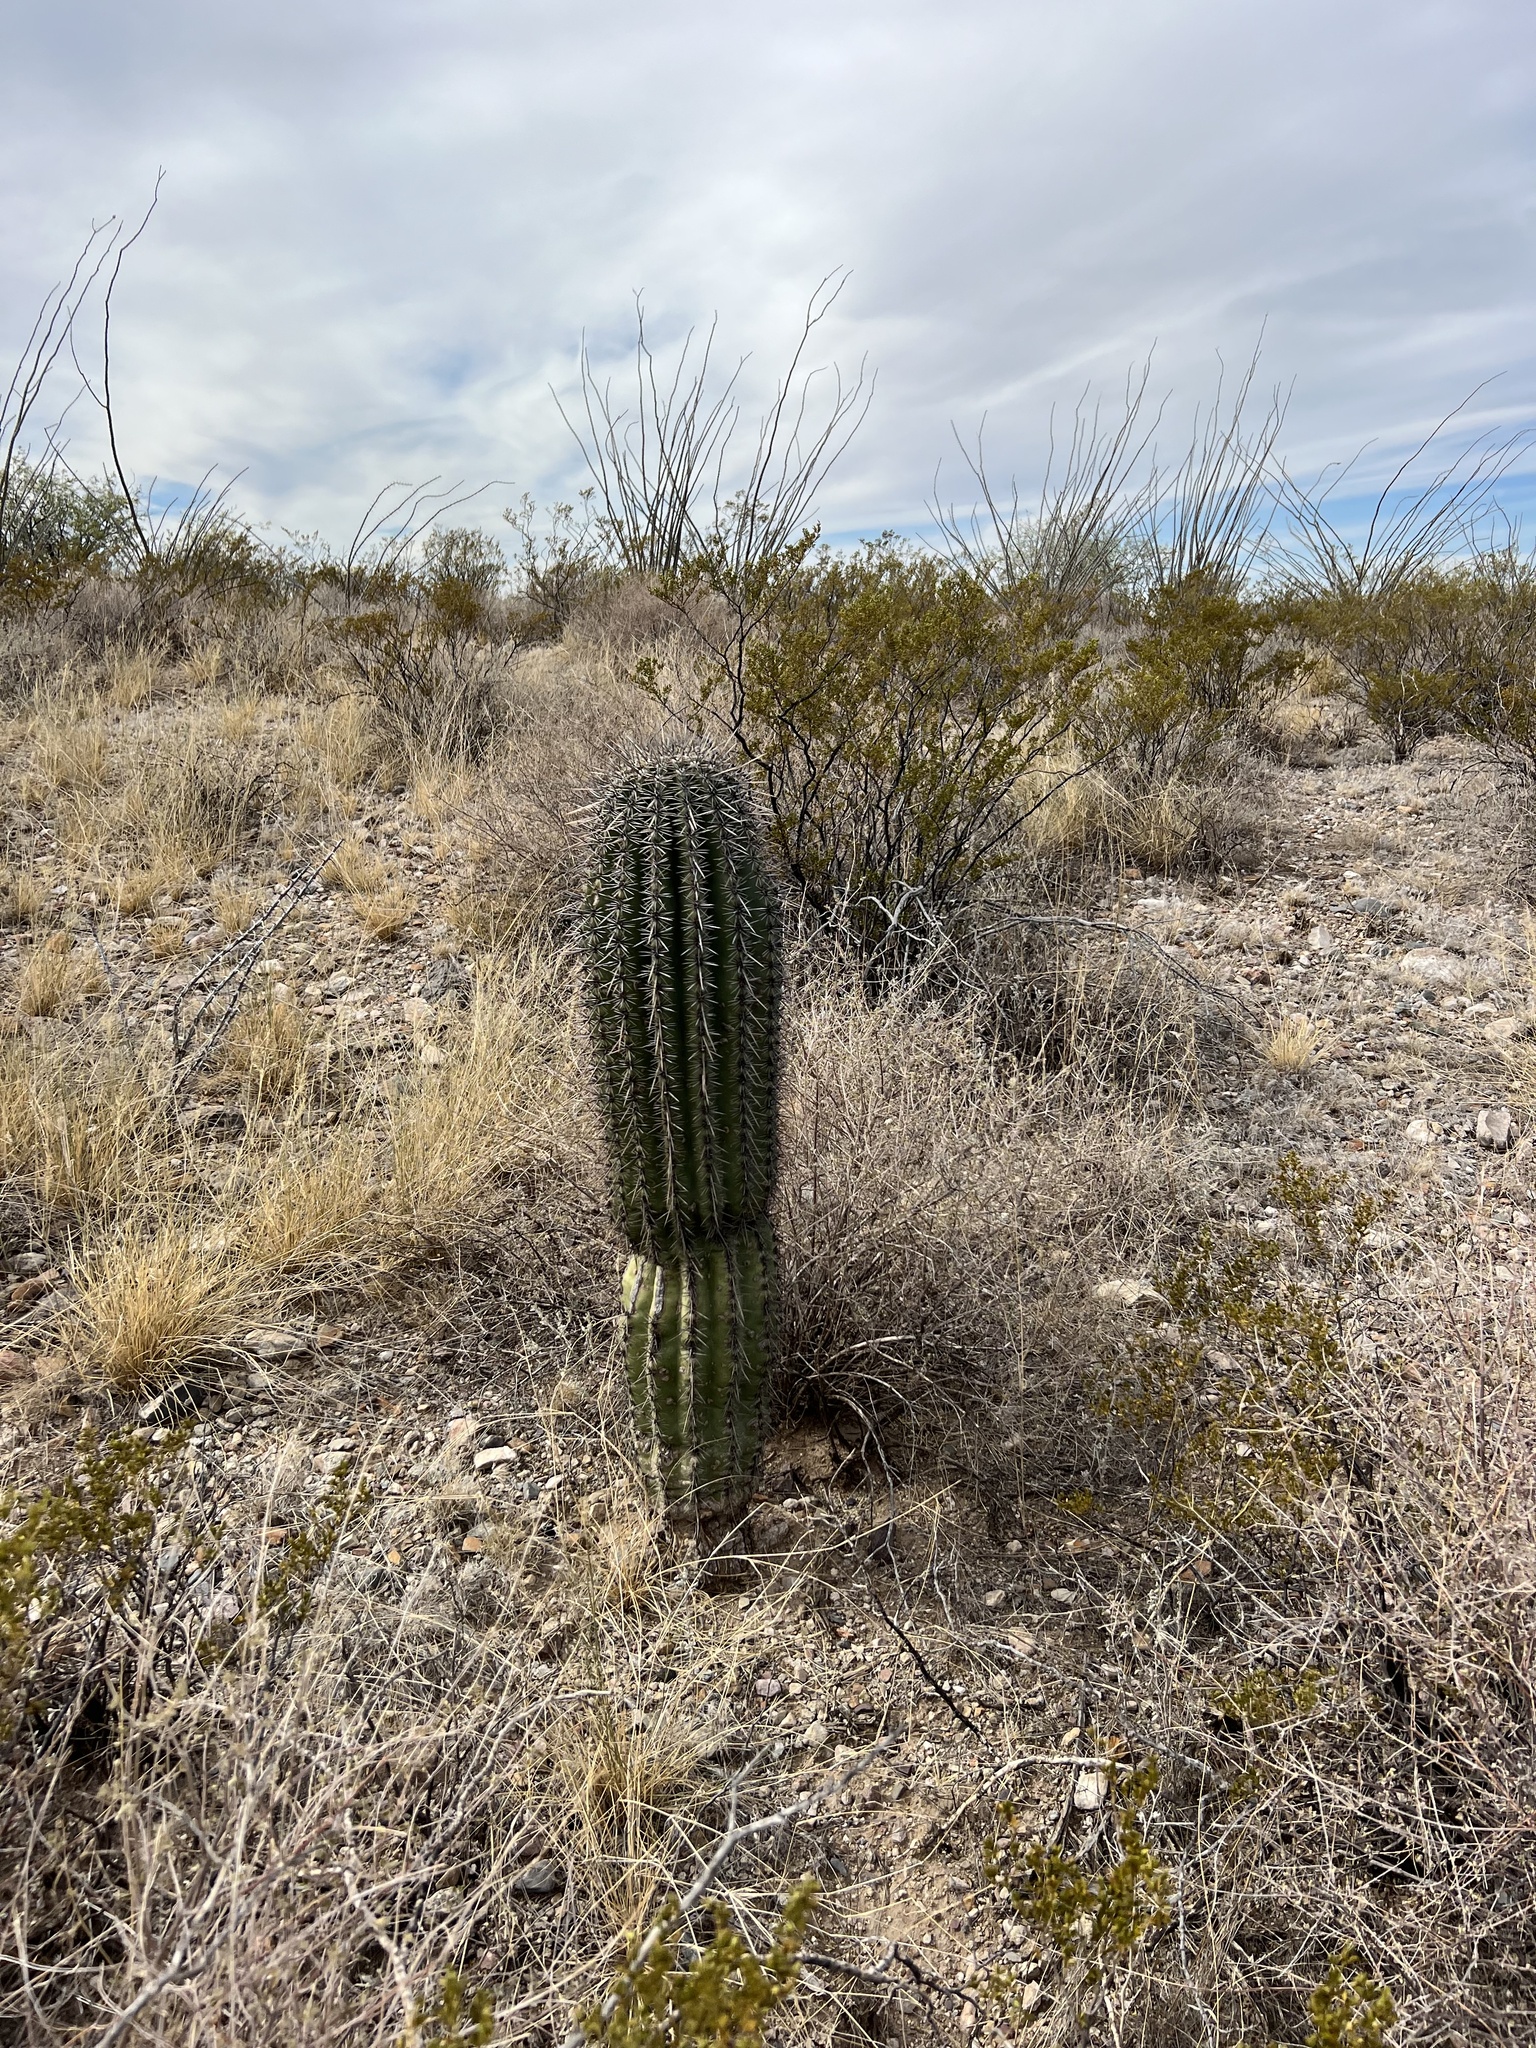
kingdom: Plantae
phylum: Tracheophyta
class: Magnoliopsida
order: Caryophyllales
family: Cactaceae
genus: Carnegiea
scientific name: Carnegiea gigantea
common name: Saguaro
